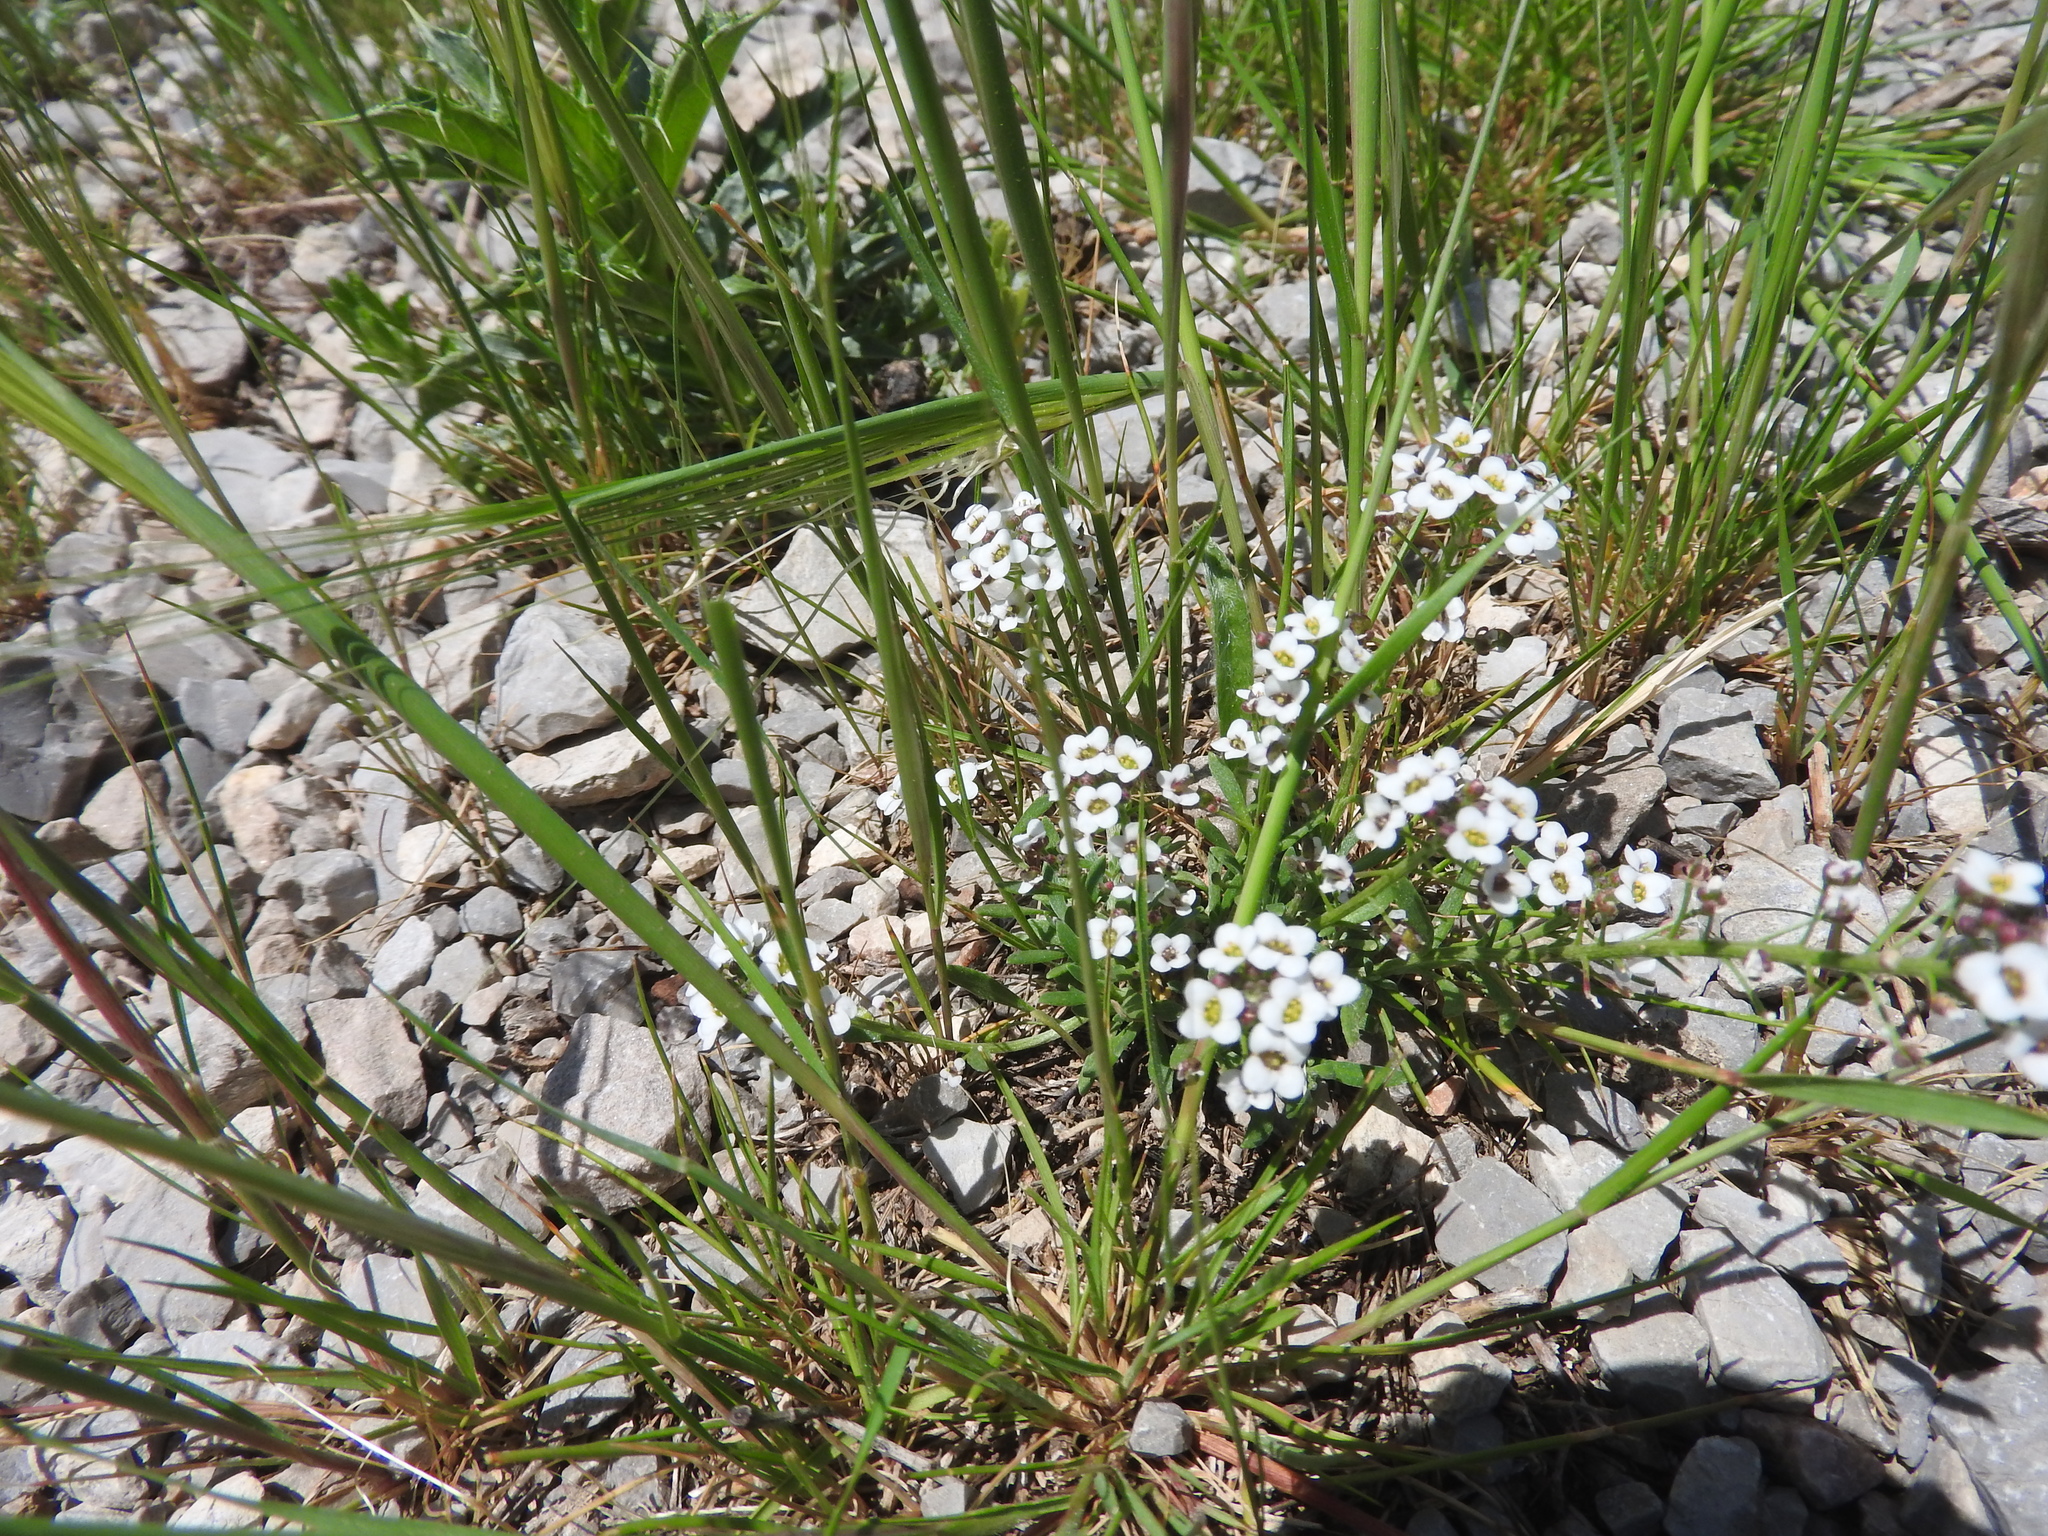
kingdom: Plantae
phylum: Tracheophyta
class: Magnoliopsida
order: Brassicales
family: Brassicaceae
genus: Lobularia
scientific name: Lobularia maritima
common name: Sweet alison
